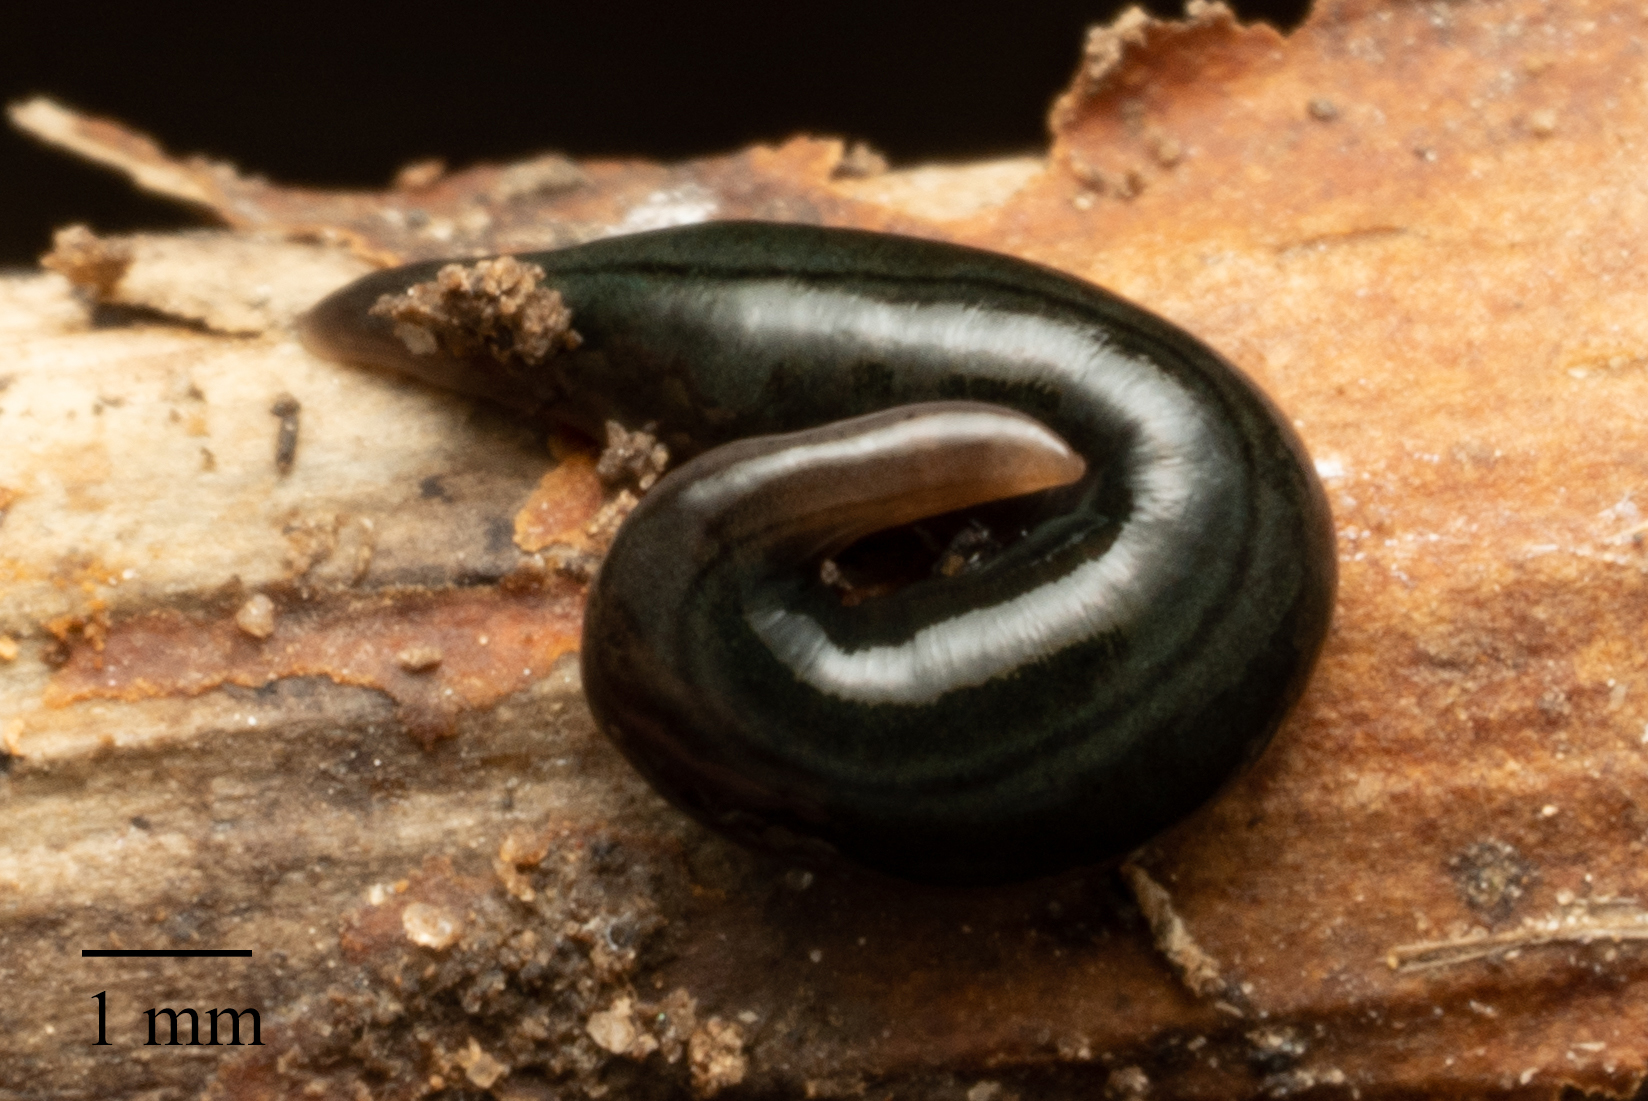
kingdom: Animalia
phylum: Platyhelminthes
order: Tricladida
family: Geoplanidae
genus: Parakontikia
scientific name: Parakontikia ventrolineata
